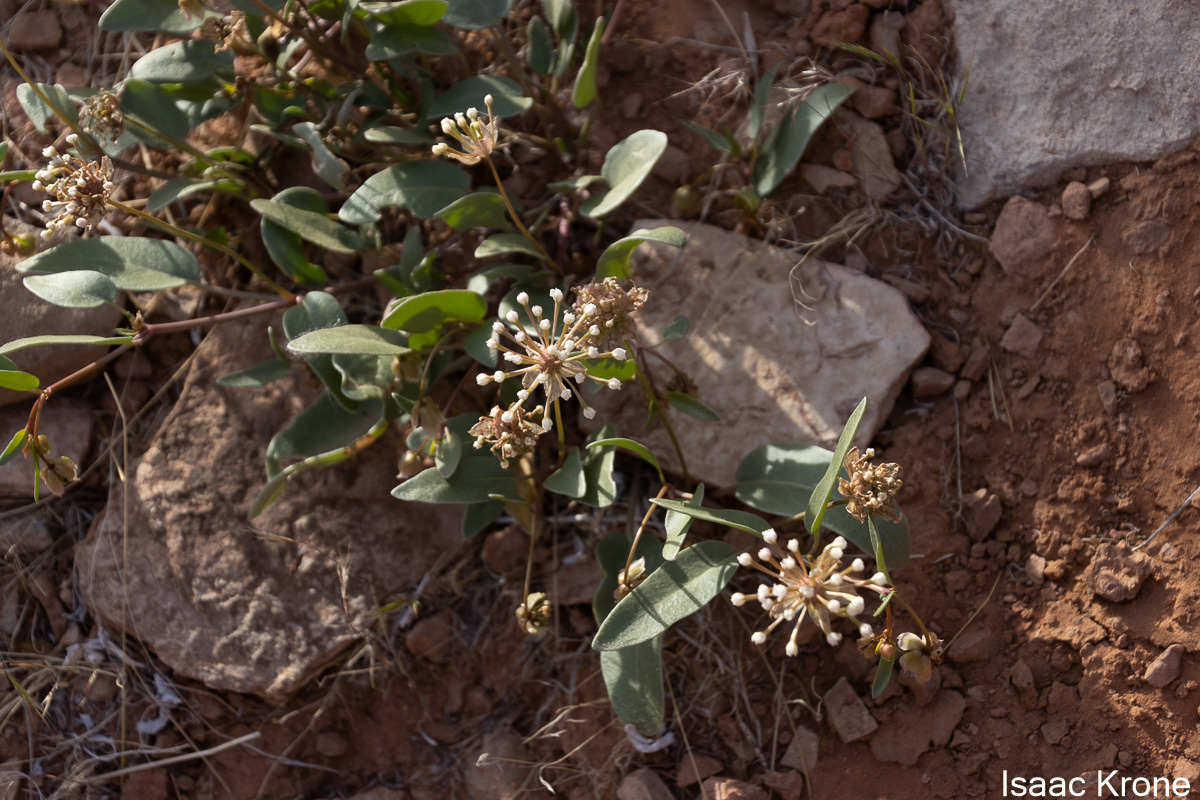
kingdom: Plantae
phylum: Tracheophyta
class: Magnoliopsida
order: Caryophyllales
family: Nyctaginaceae
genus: Abronia
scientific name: Abronia elliptica
